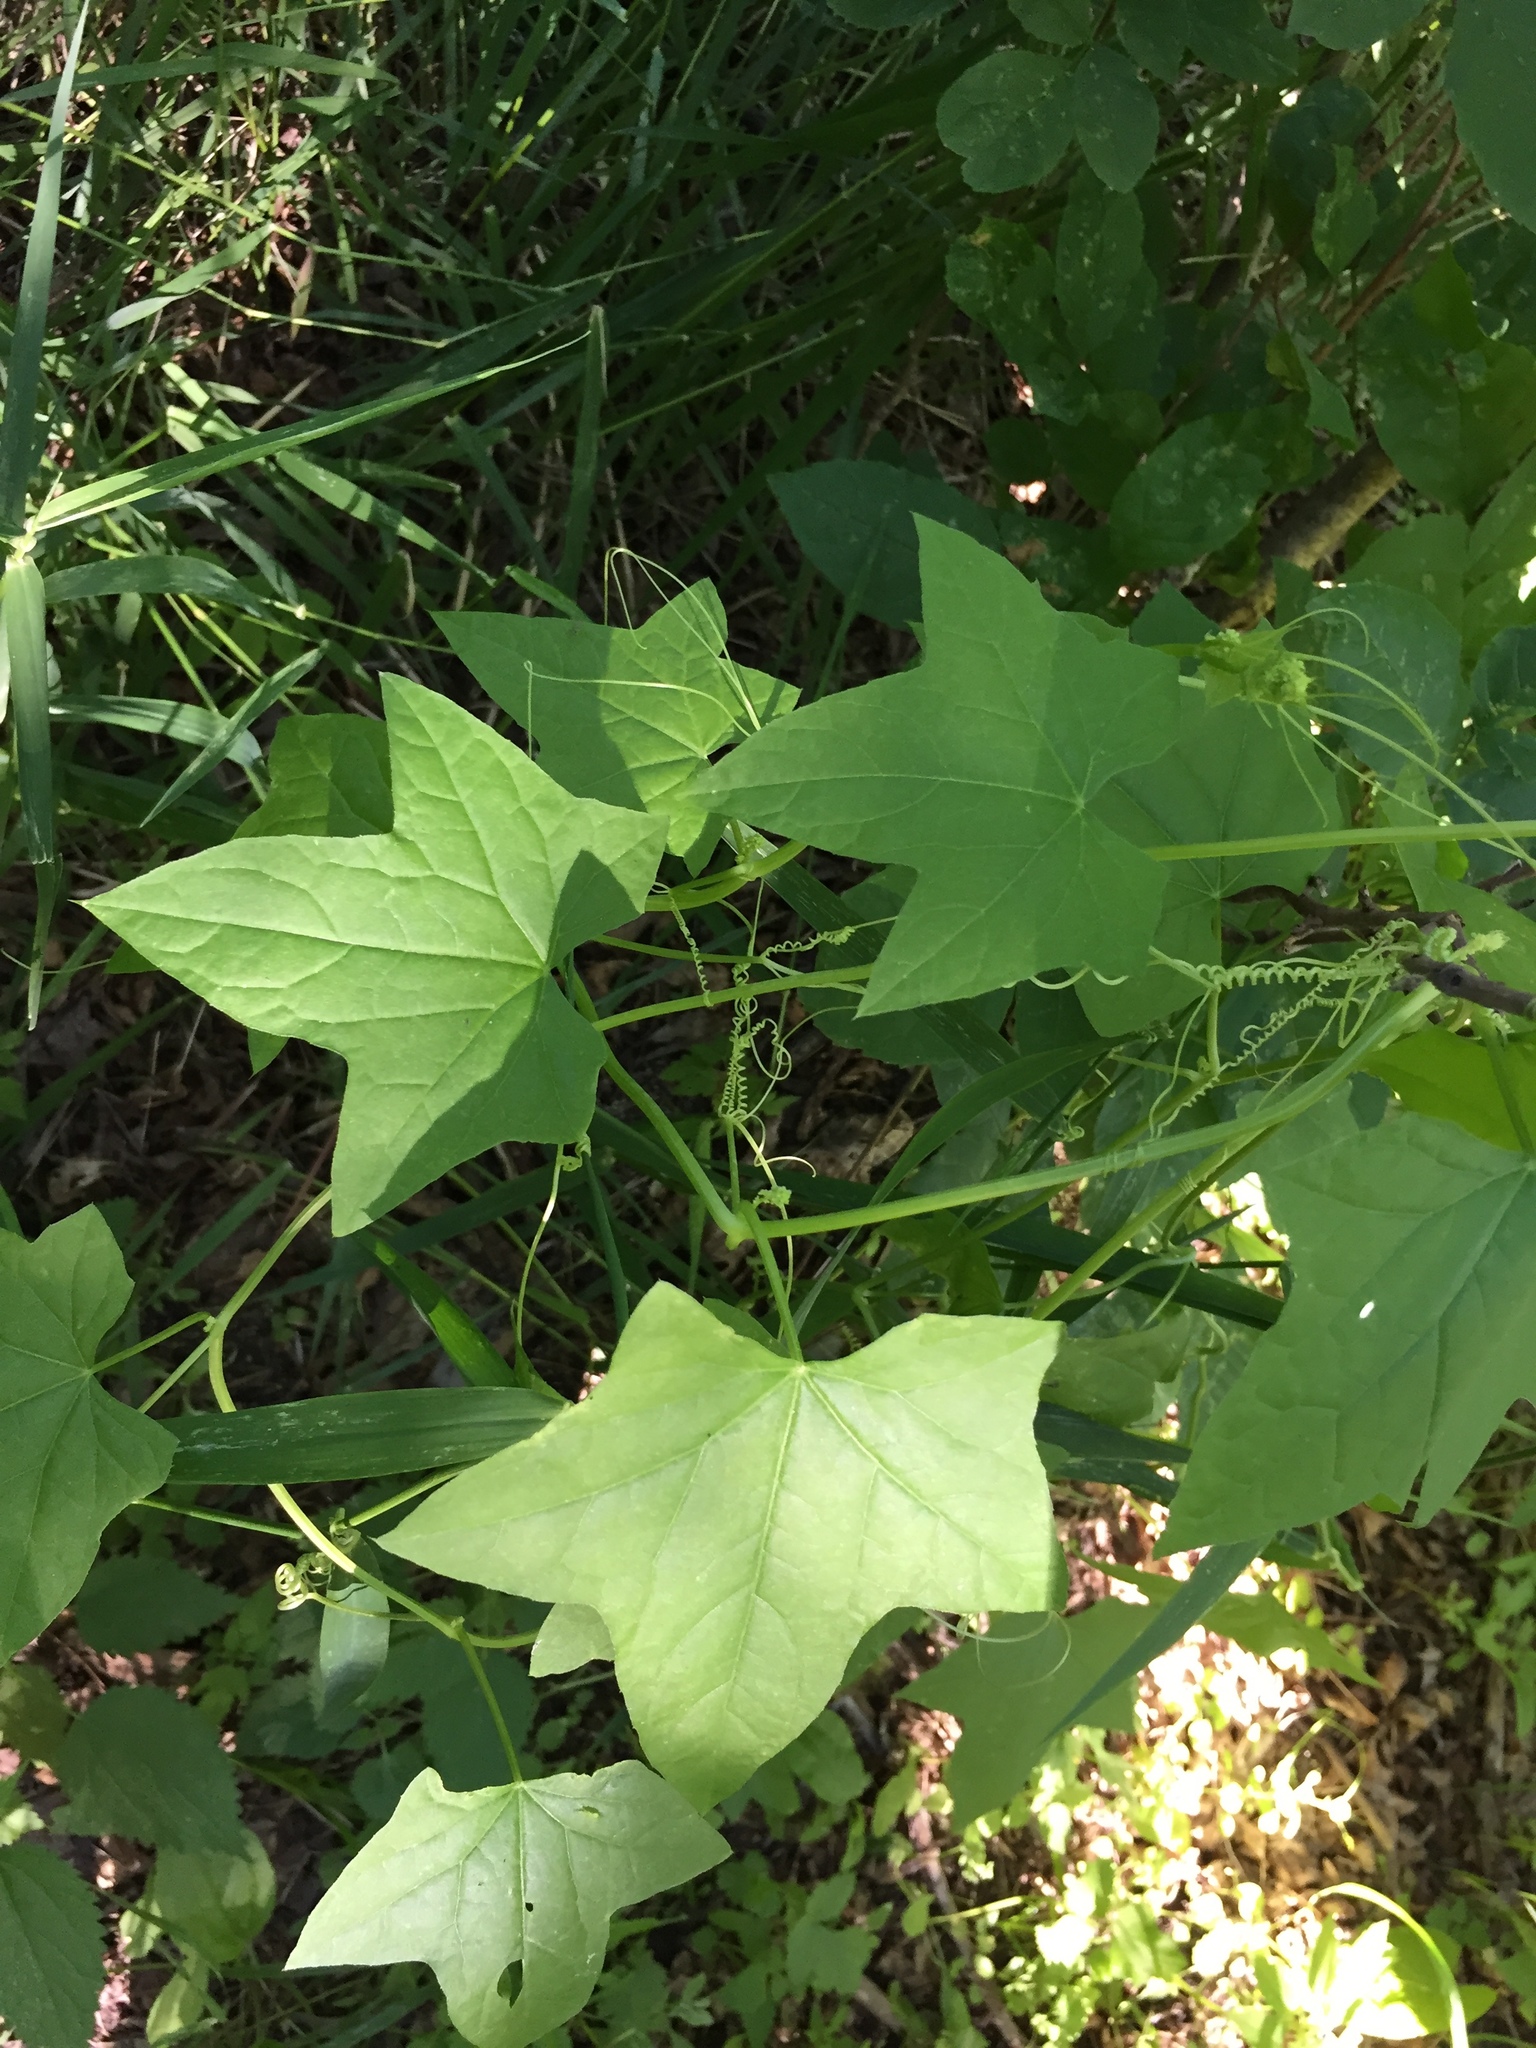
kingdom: Plantae
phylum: Tracheophyta
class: Magnoliopsida
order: Cucurbitales
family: Cucurbitaceae
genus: Echinocystis
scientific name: Echinocystis lobata
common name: Wild cucumber
